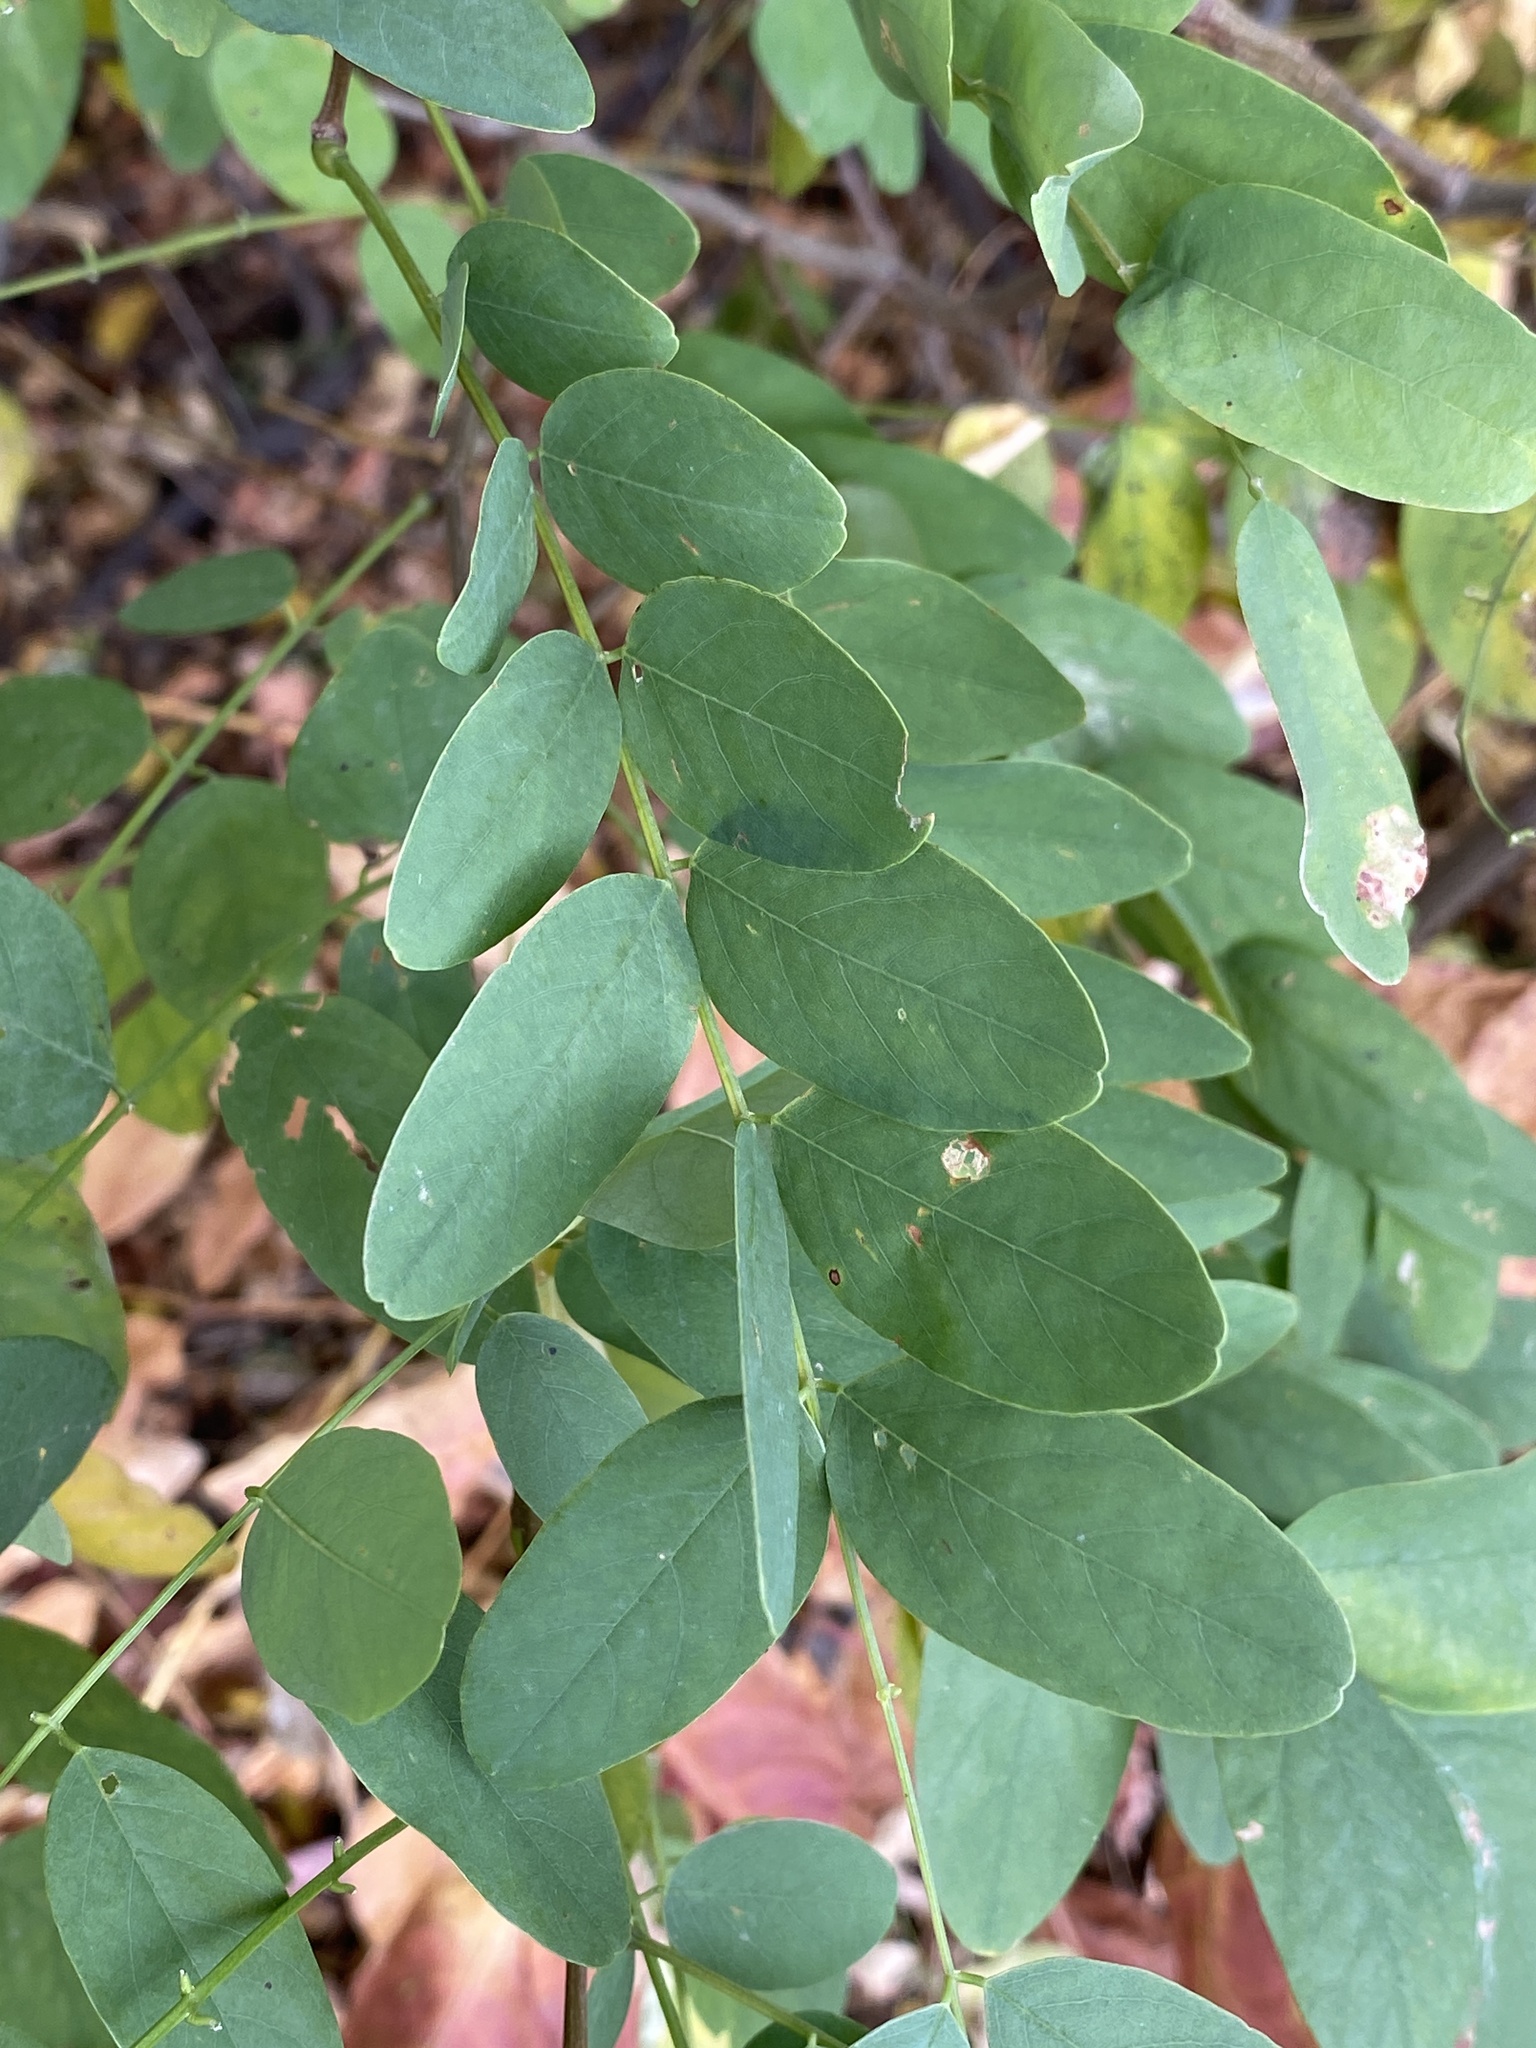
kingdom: Animalia
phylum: Arthropoda
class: Insecta
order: Lepidoptera
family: Tortricidae
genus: Ecdytolopha
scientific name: Ecdytolopha insiticiana
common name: Locust twig borer moth
